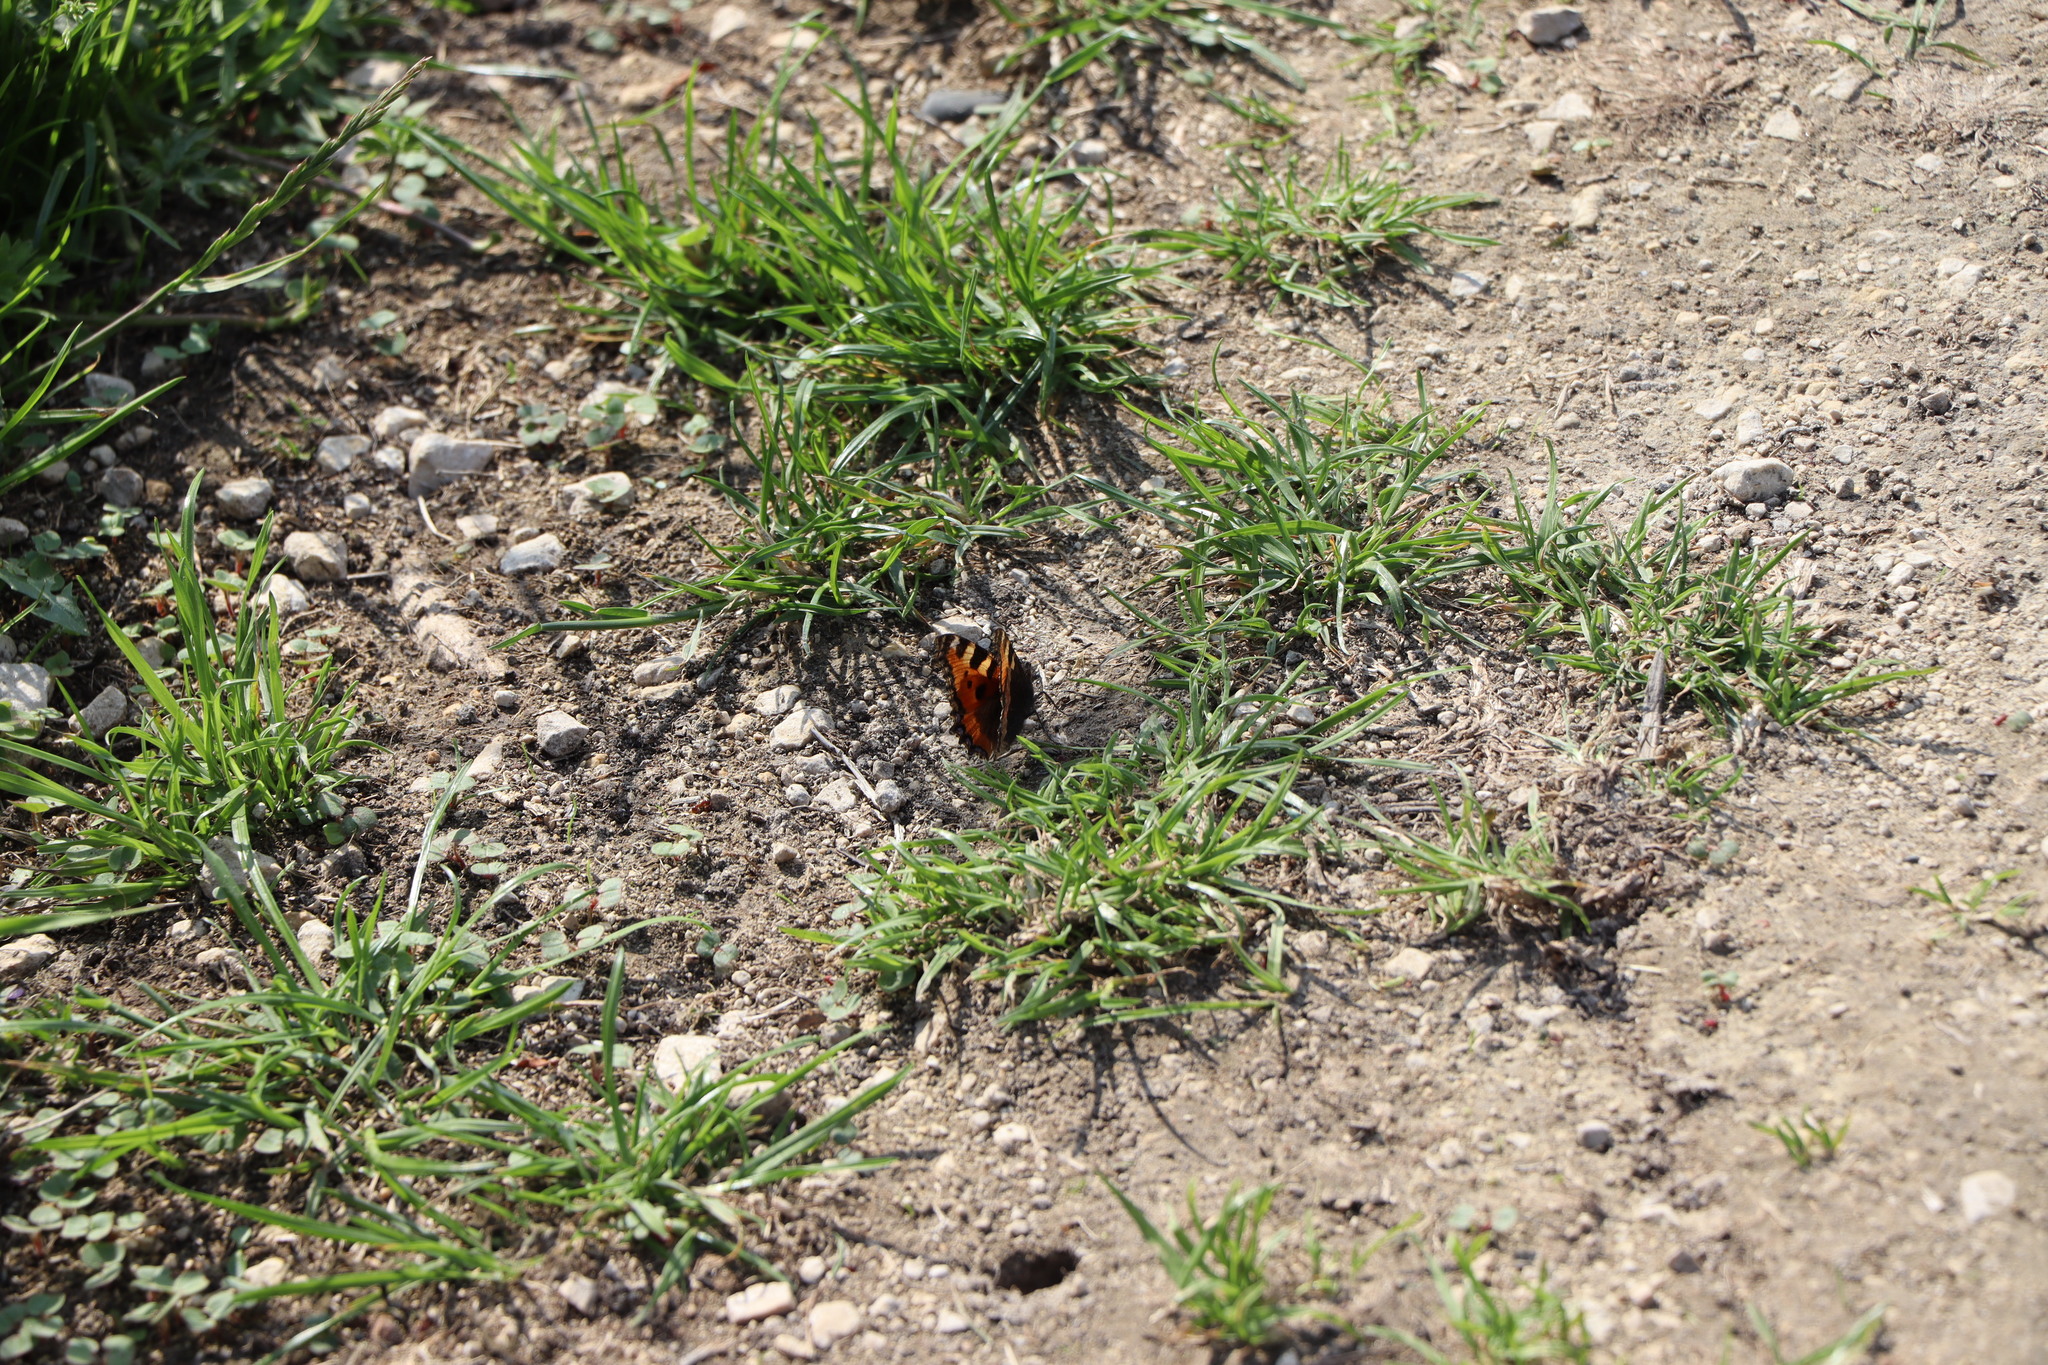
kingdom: Animalia
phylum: Arthropoda
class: Insecta
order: Lepidoptera
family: Nymphalidae
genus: Aglais
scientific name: Aglais urticae
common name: Small tortoiseshell
